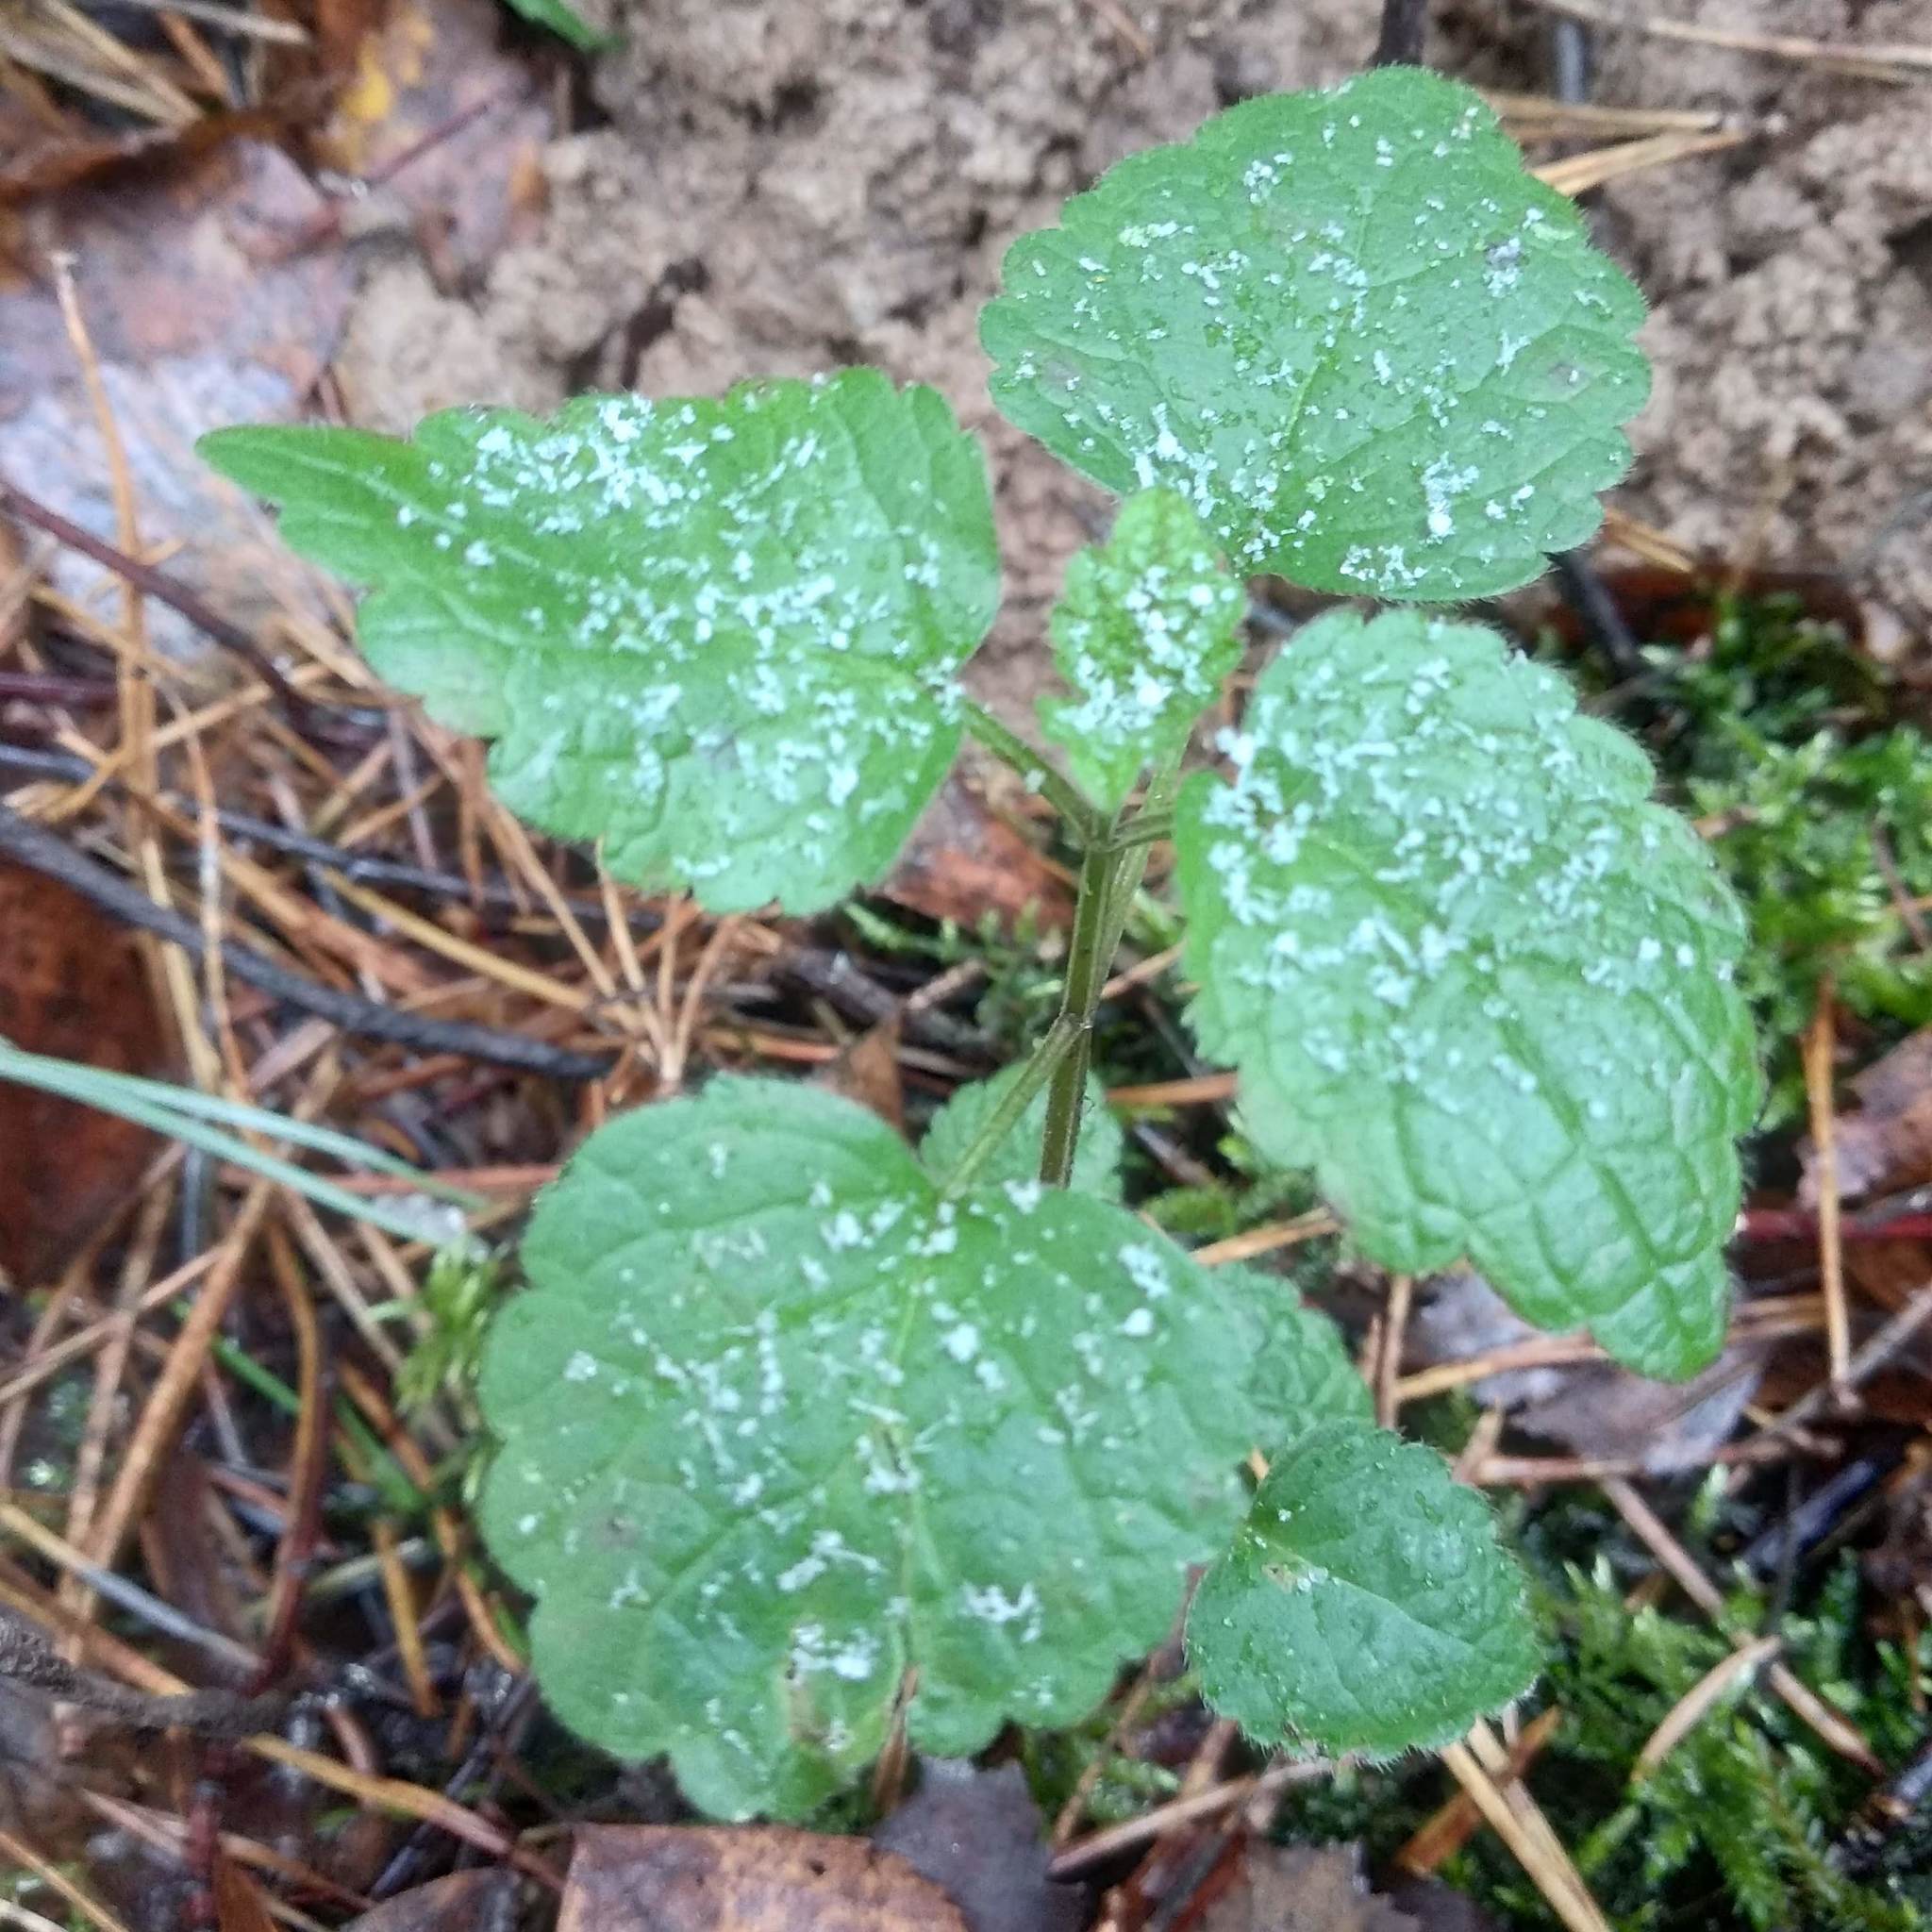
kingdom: Plantae
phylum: Tracheophyta
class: Magnoliopsida
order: Lamiales
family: Lamiaceae
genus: Lamium
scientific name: Lamium galeobdolon
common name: Yellow archangel
